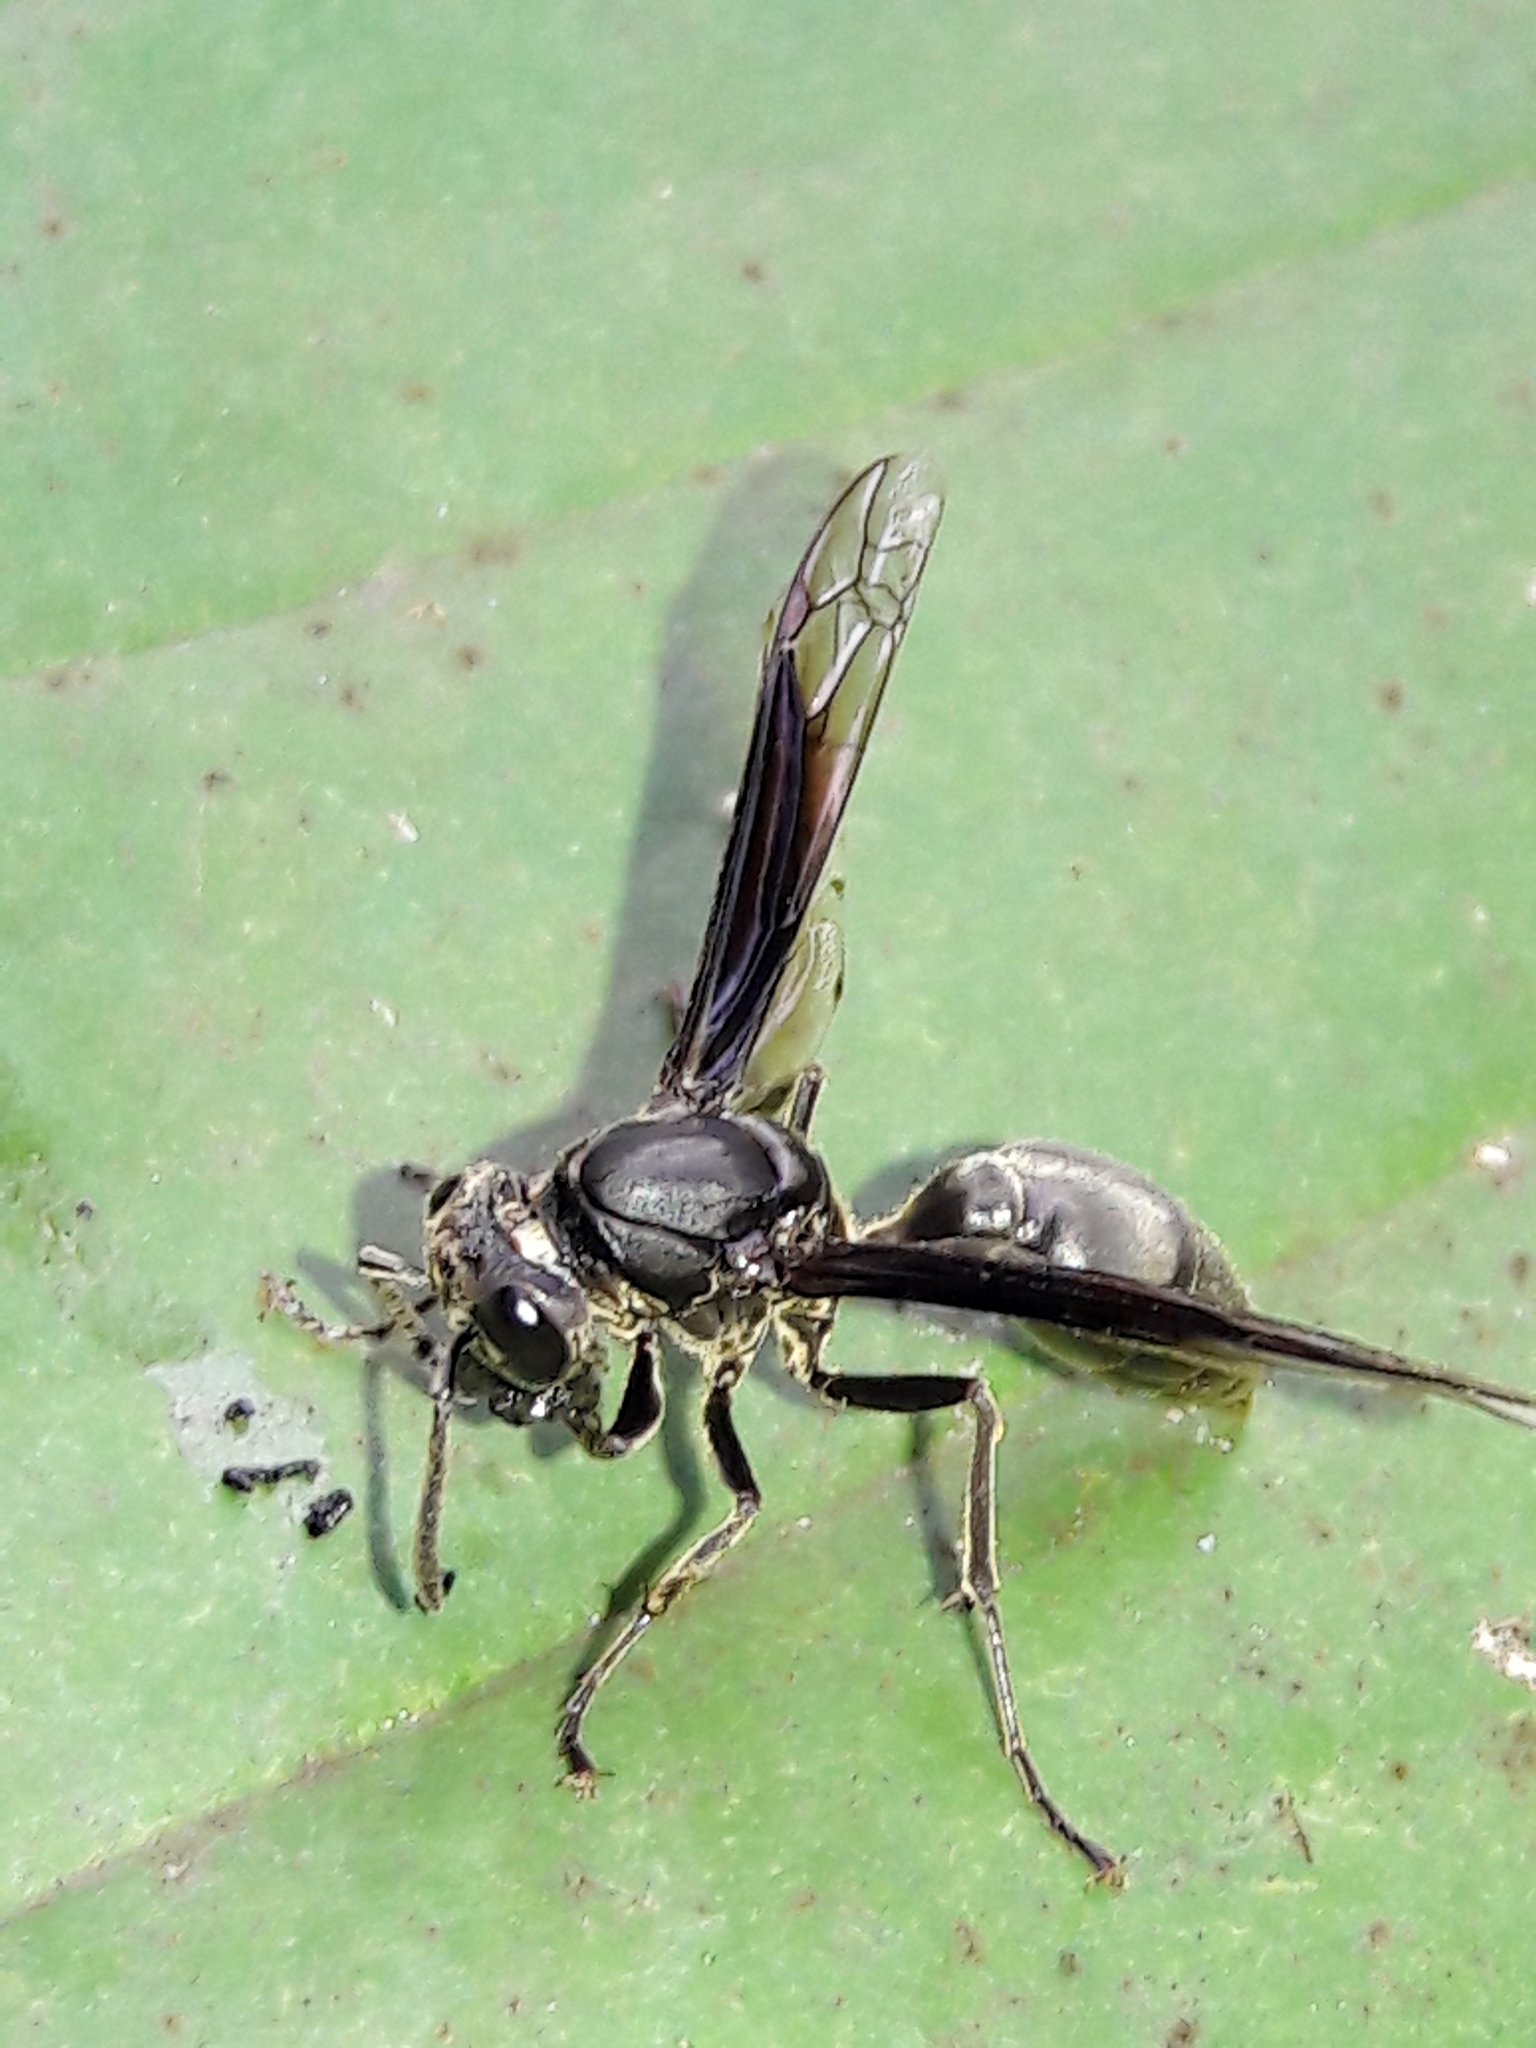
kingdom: Animalia
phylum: Arthropoda
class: Insecta
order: Hymenoptera
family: Eumenidae
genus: Polybia
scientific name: Polybia ignobilis
